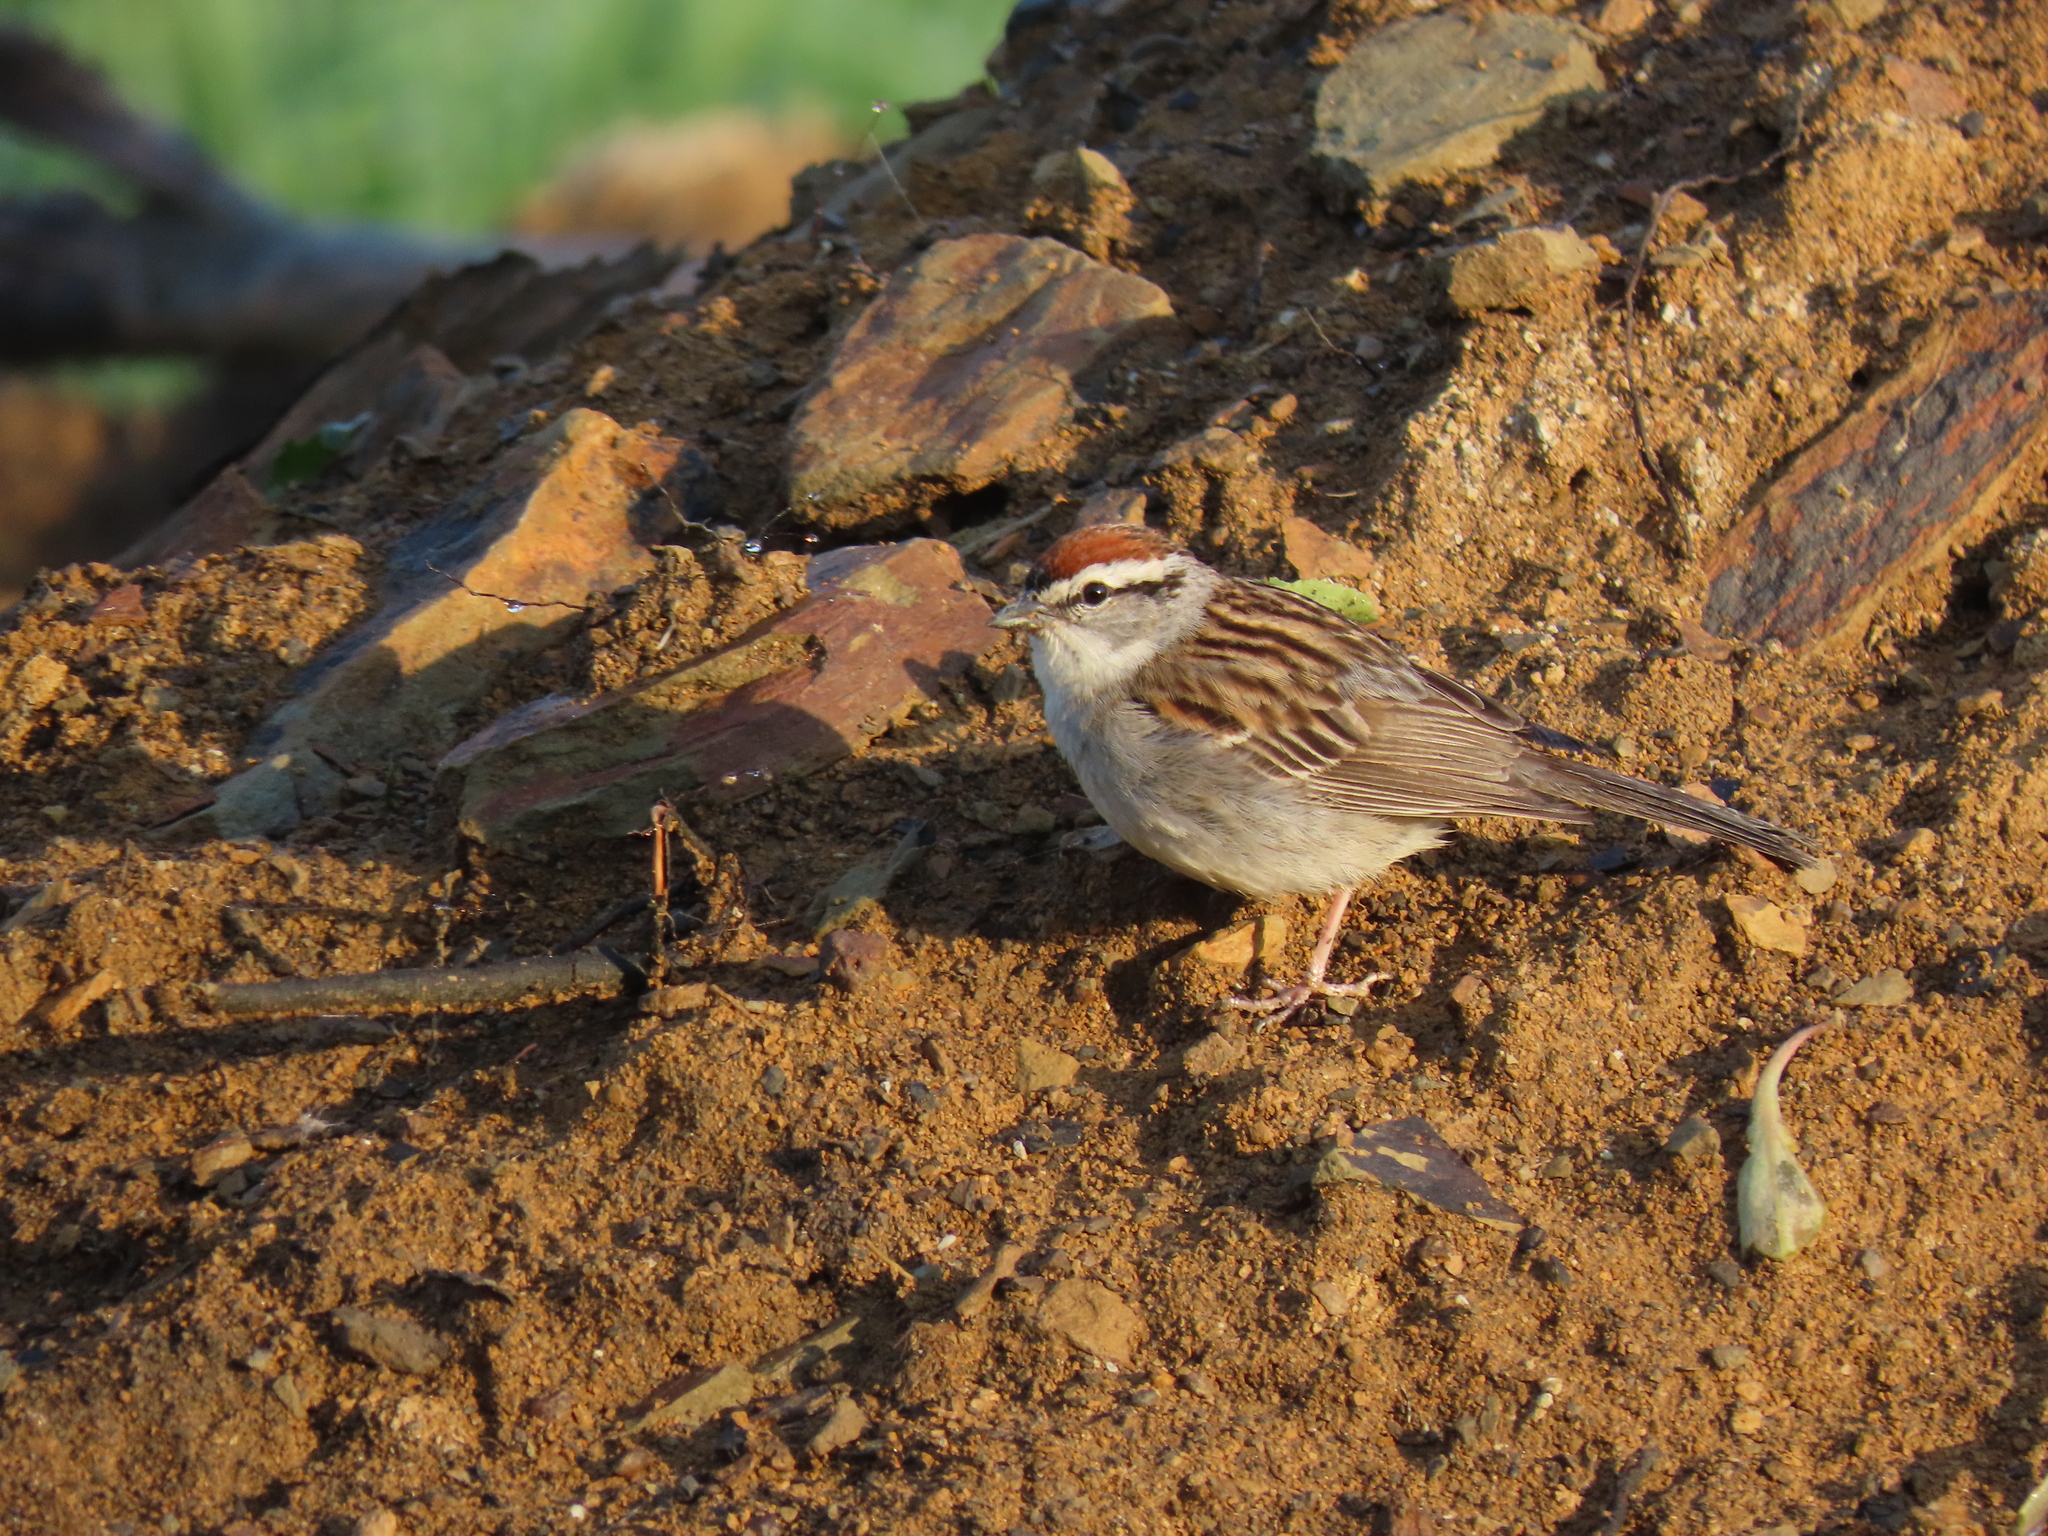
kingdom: Animalia
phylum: Chordata
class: Aves
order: Passeriformes
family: Passerellidae
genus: Spizella
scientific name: Spizella passerina
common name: Chipping sparrow
